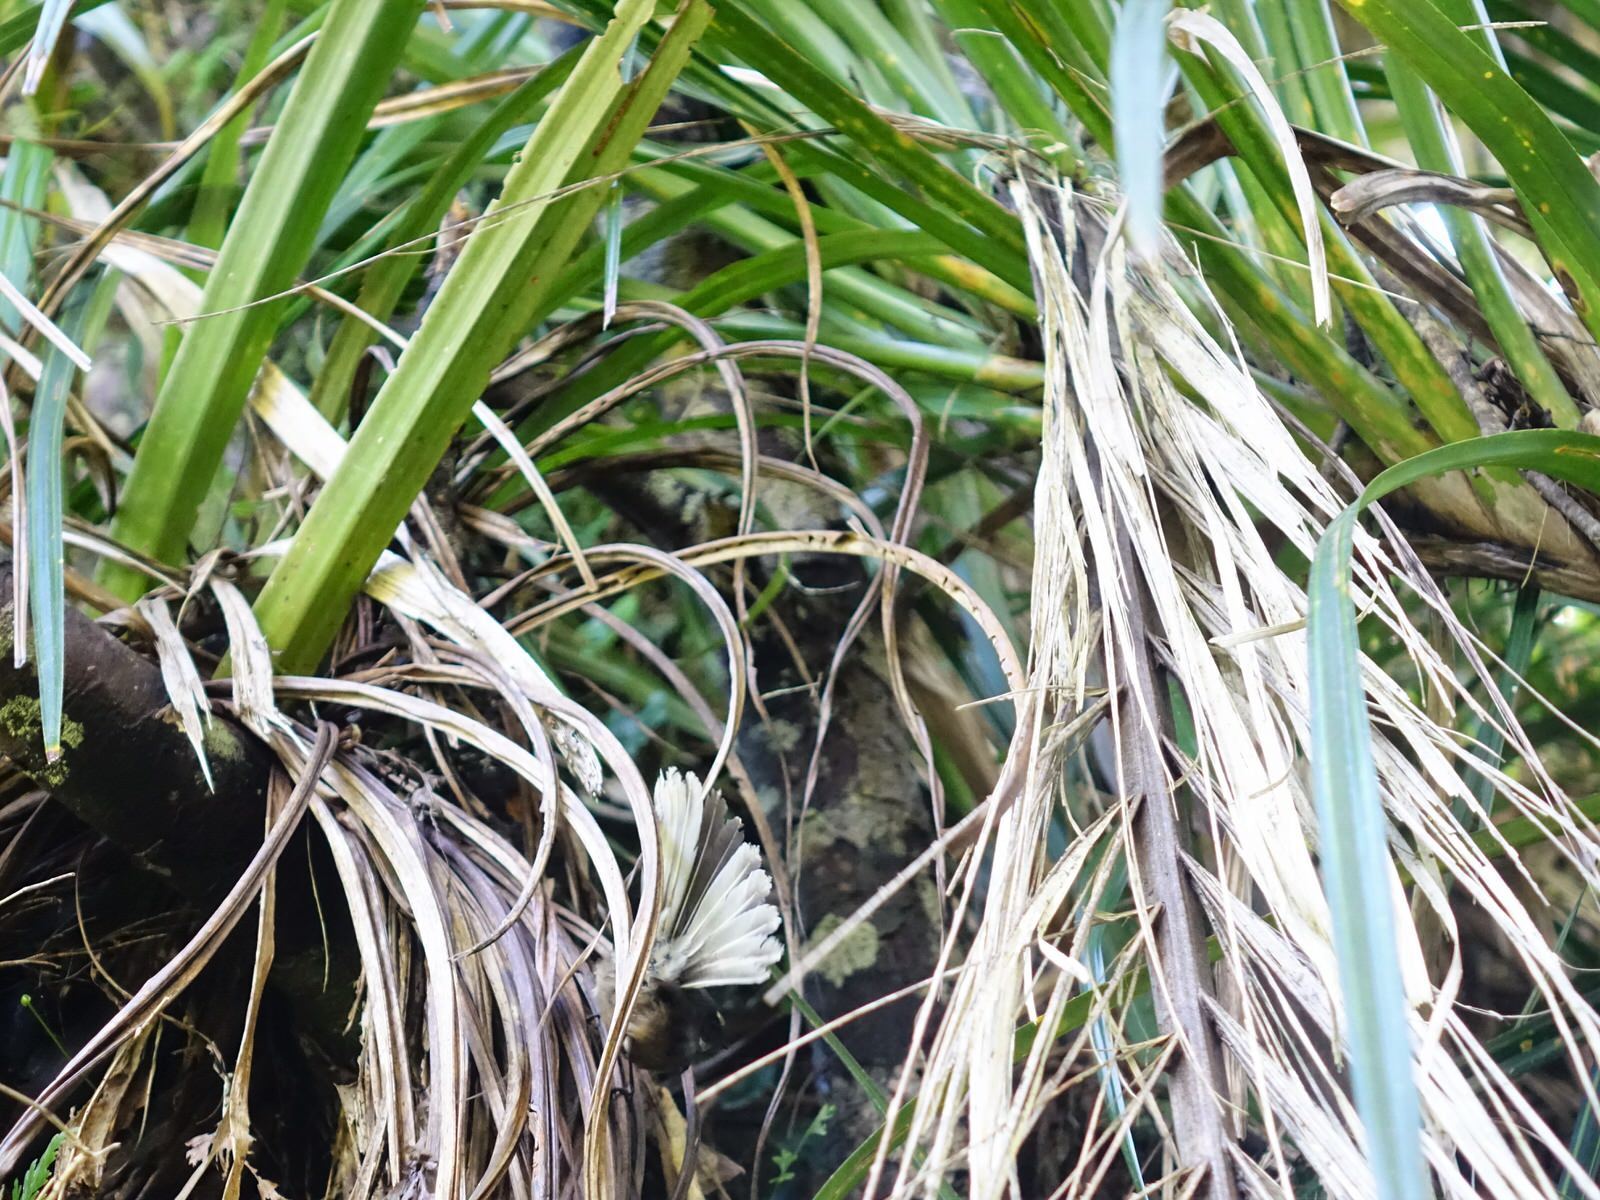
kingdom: Animalia
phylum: Chordata
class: Aves
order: Passeriformes
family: Rhipiduridae
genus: Rhipidura
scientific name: Rhipidura fuliginosa
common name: New zealand fantail
